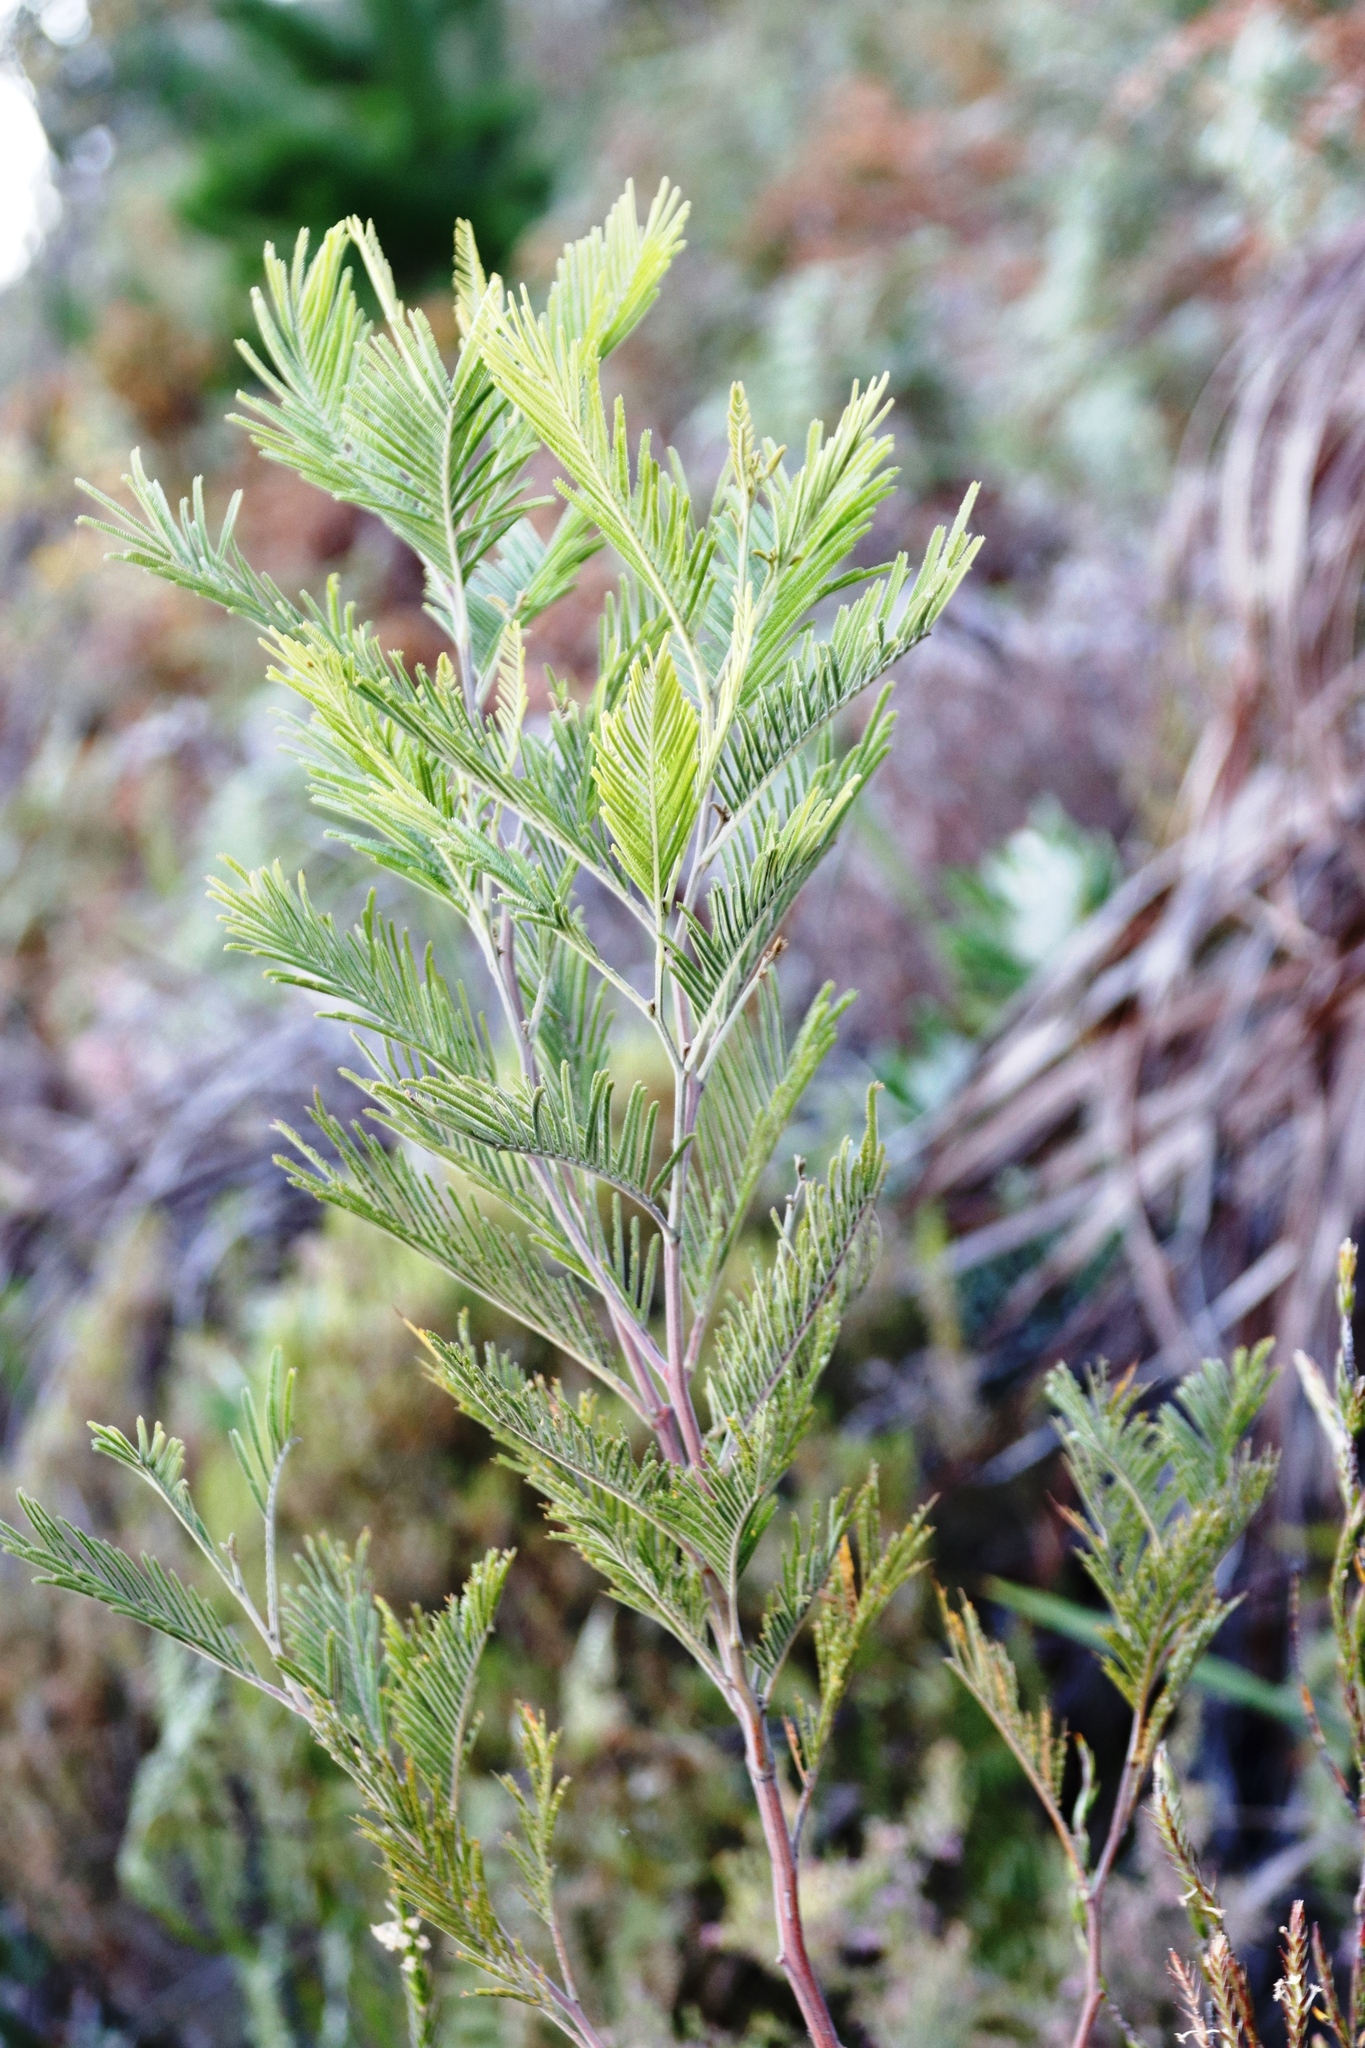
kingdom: Plantae
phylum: Tracheophyta
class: Magnoliopsida
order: Fabales
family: Fabaceae
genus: Acacia
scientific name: Acacia mearnsii
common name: Black wattle
